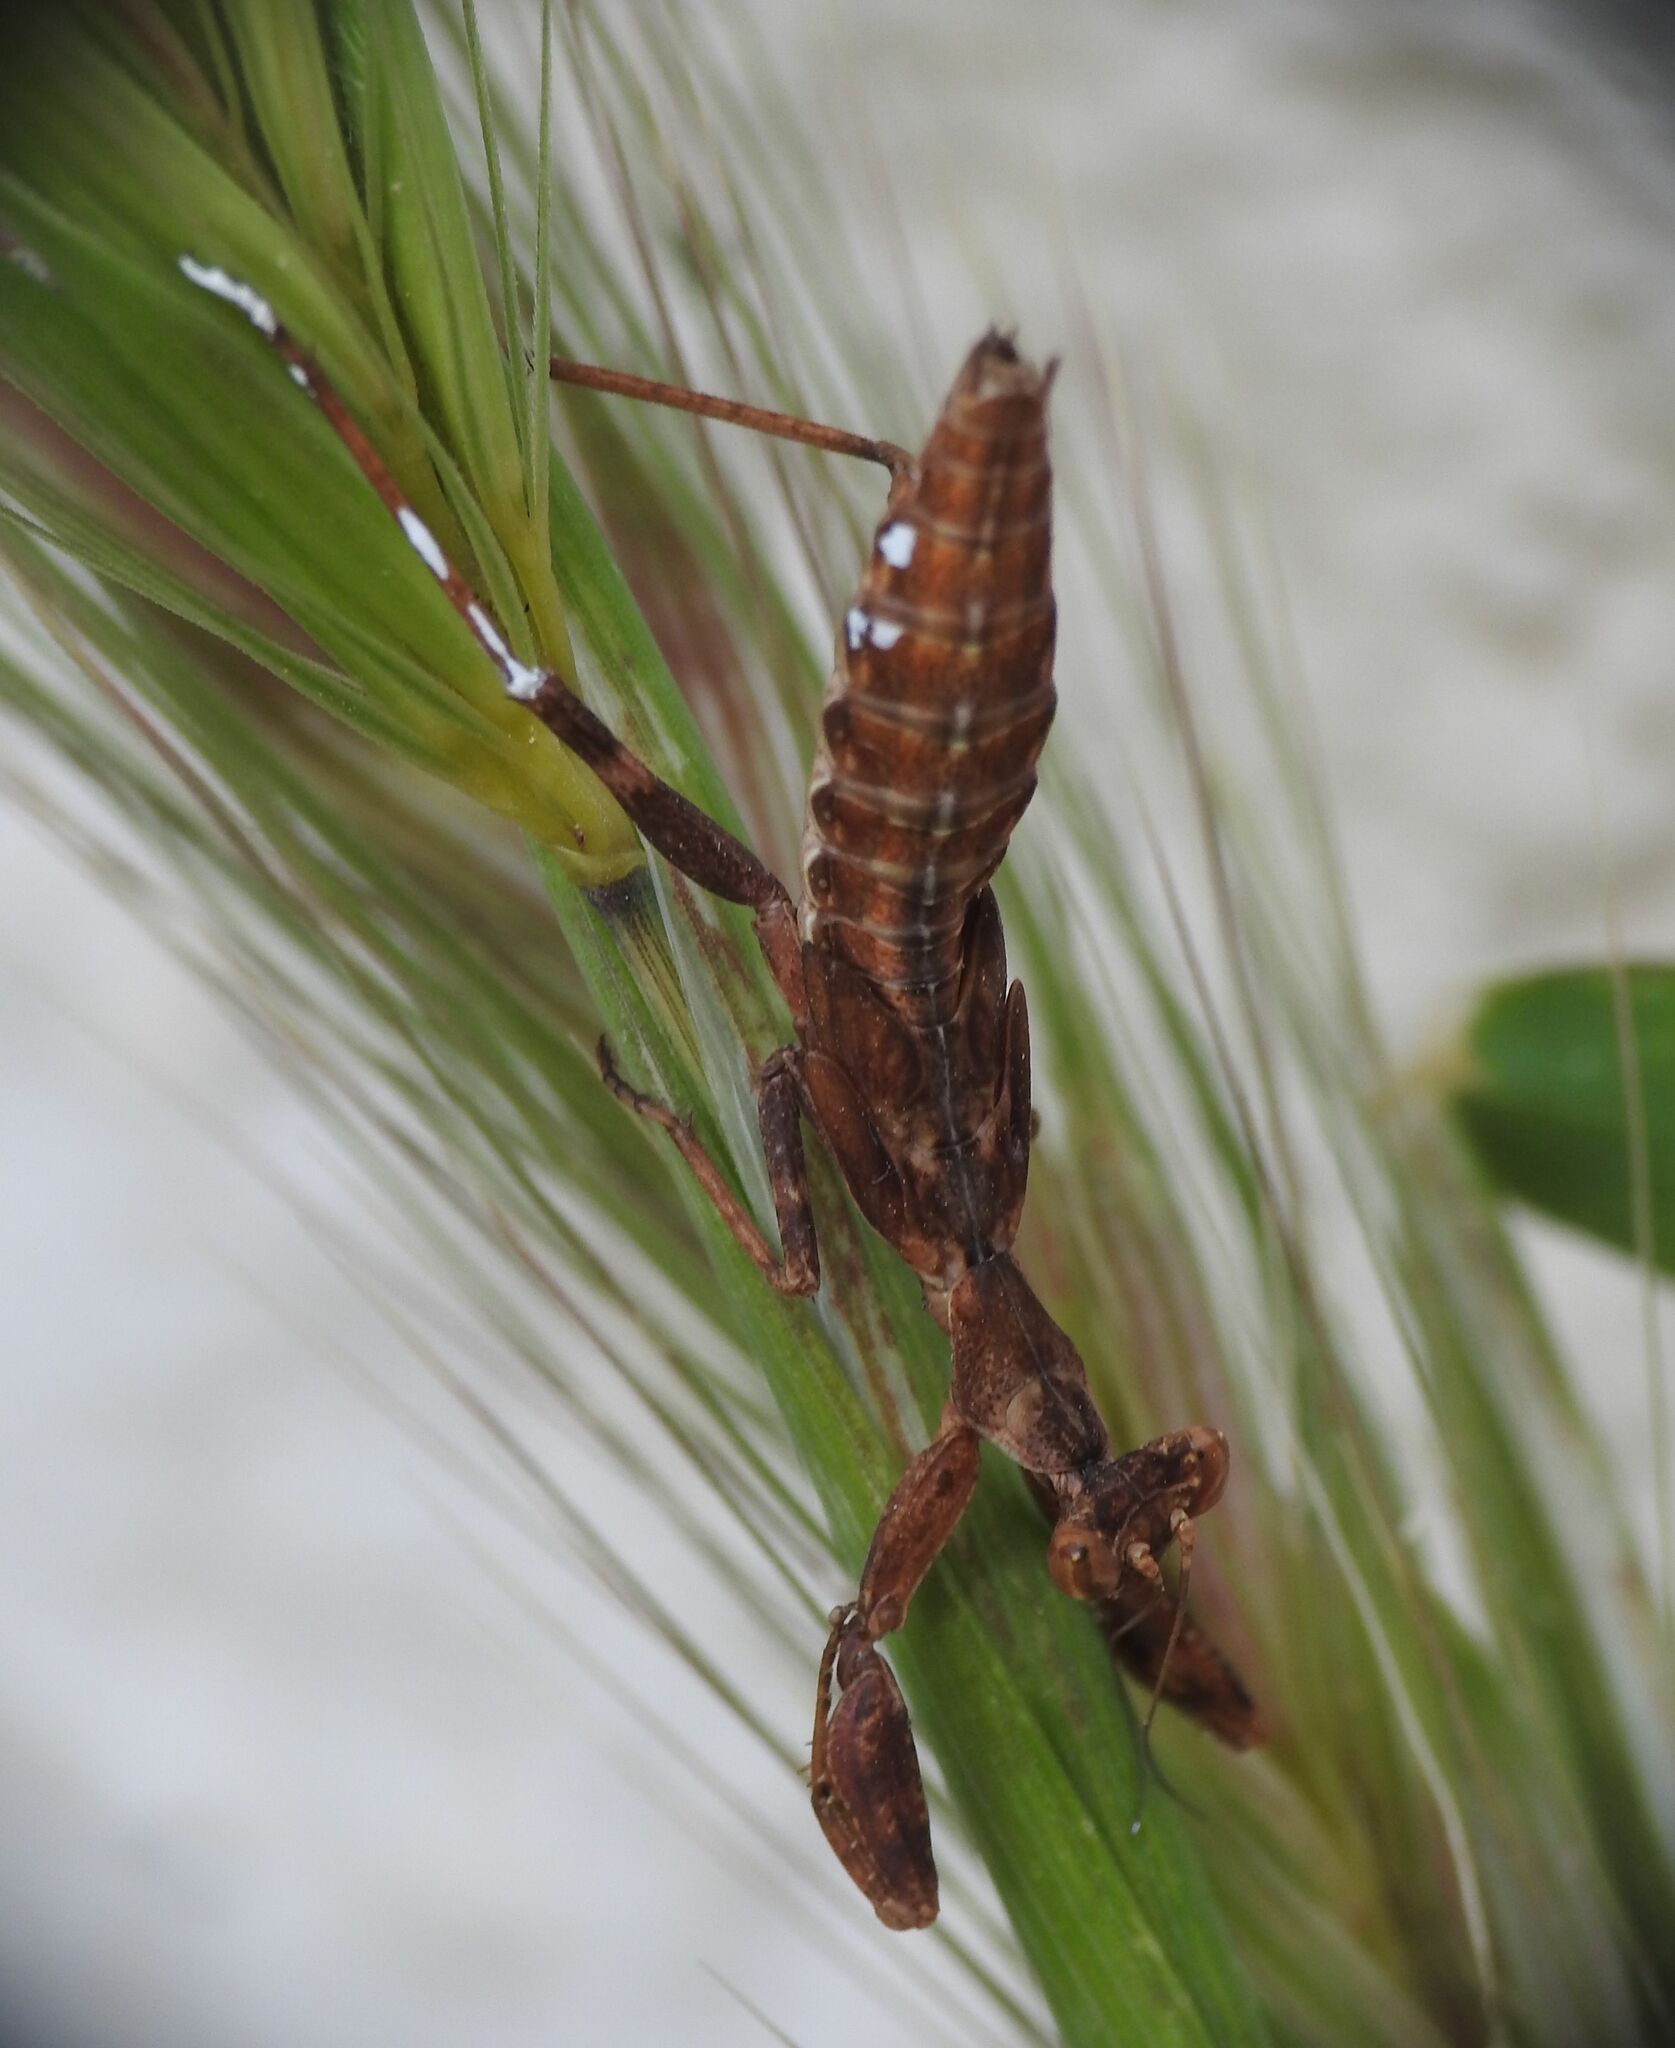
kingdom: Animalia
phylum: Arthropoda
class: Insecta
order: Mantodea
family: Amelidae
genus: Ameles
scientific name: Ameles spallanzania
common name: European dwarf mantis
